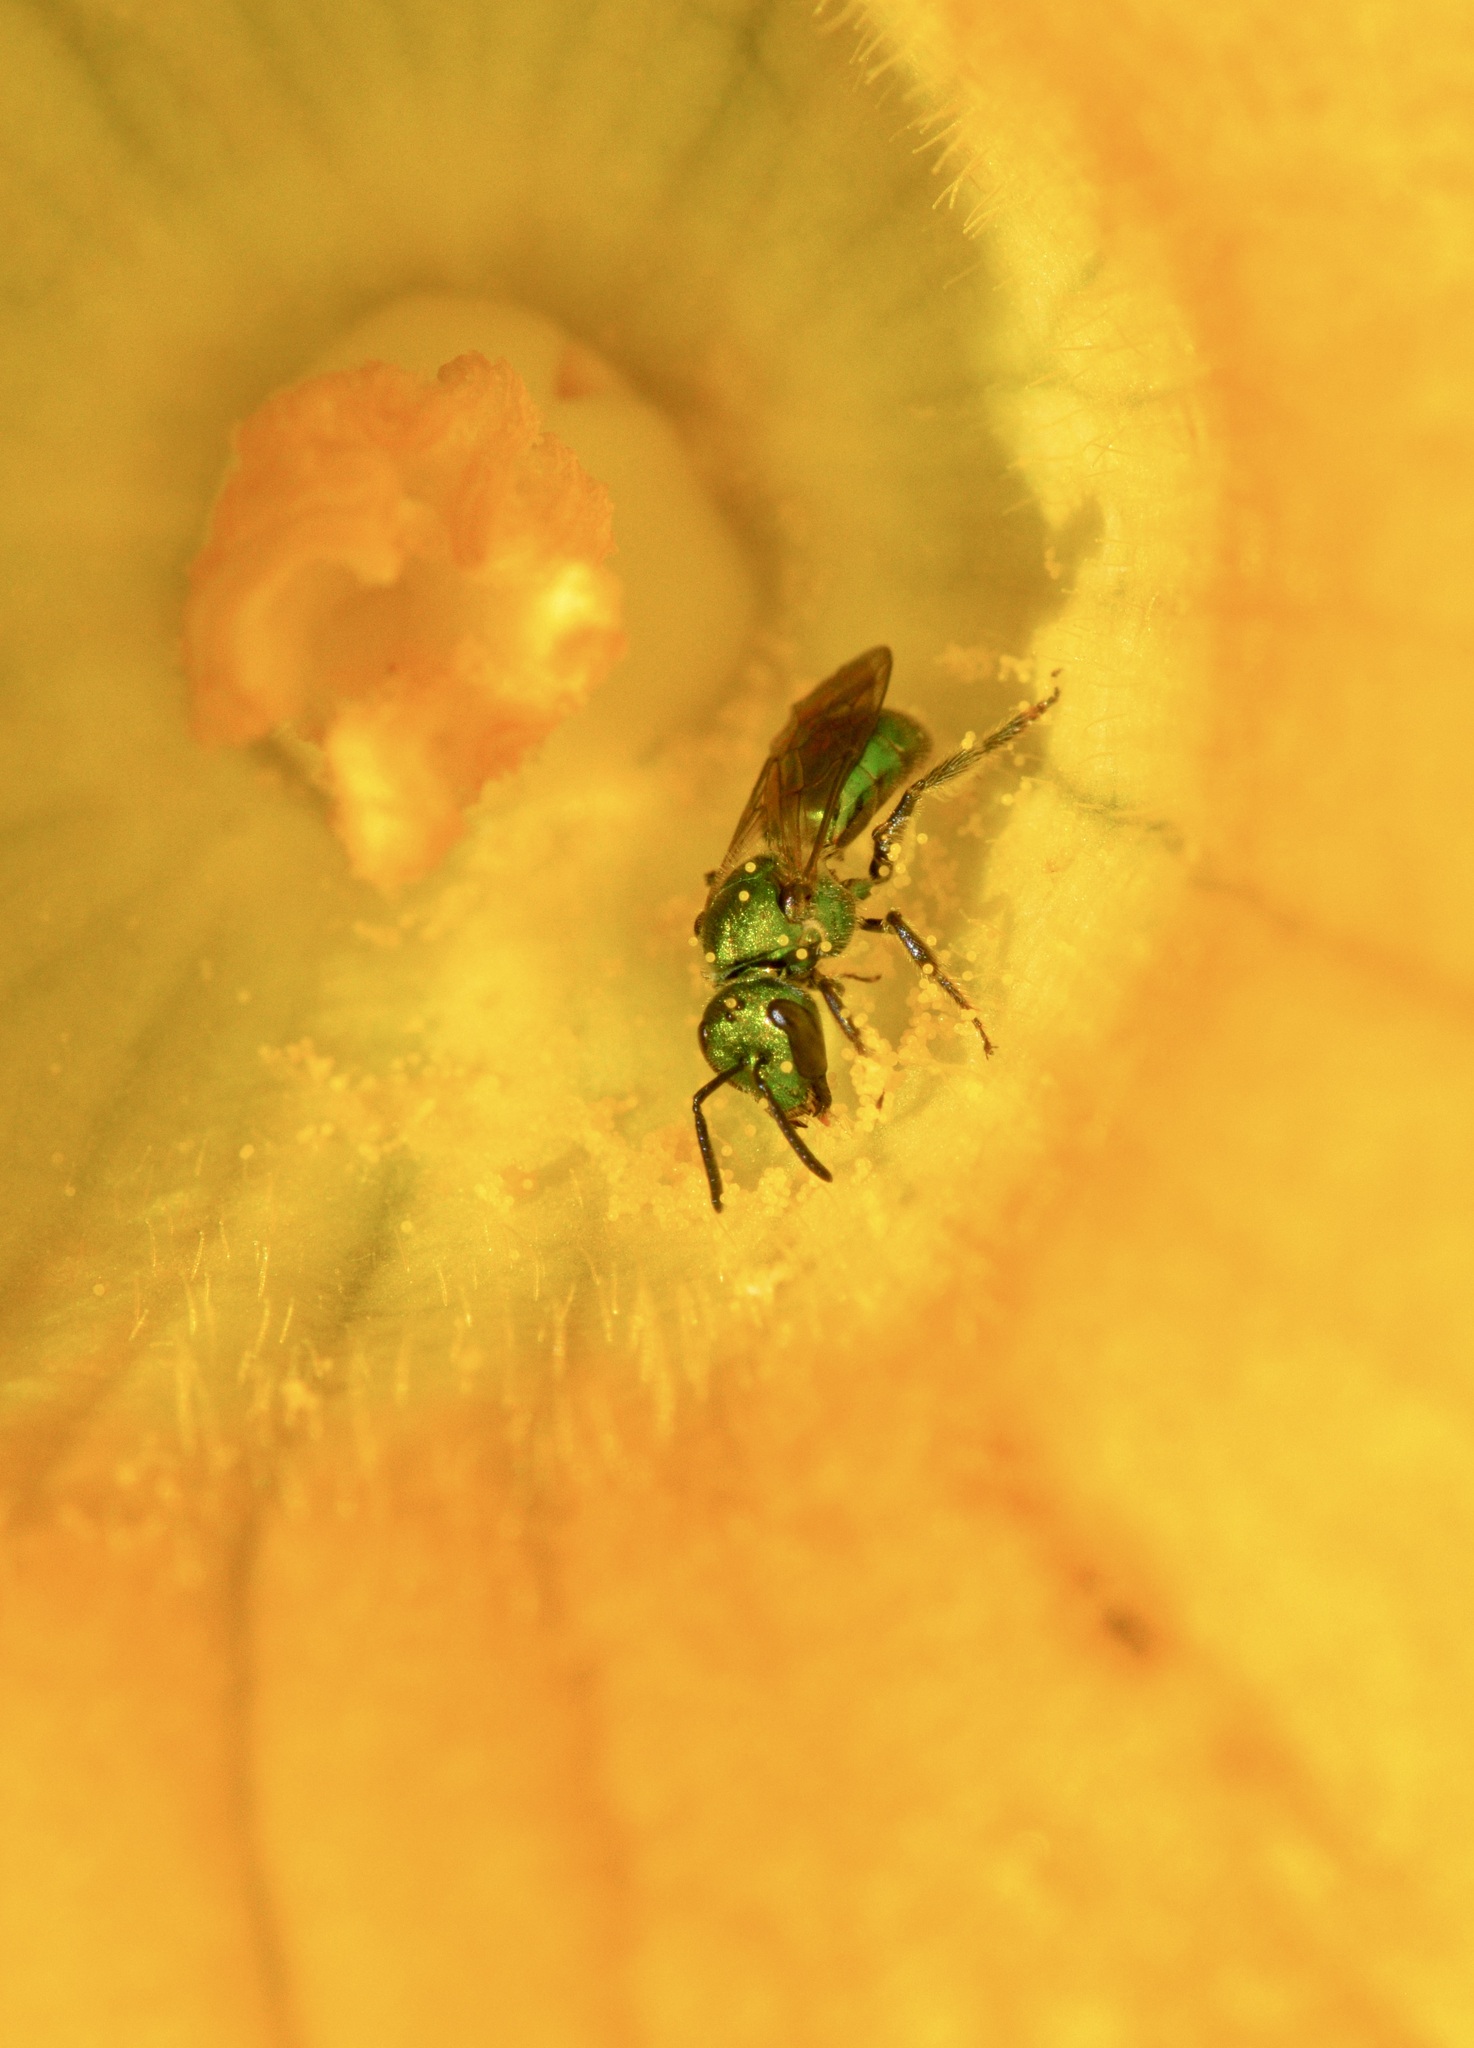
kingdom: Animalia
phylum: Arthropoda
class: Insecta
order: Hymenoptera
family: Halictidae
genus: Augochlora
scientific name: Augochlora pura
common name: Pure green sweat bee
